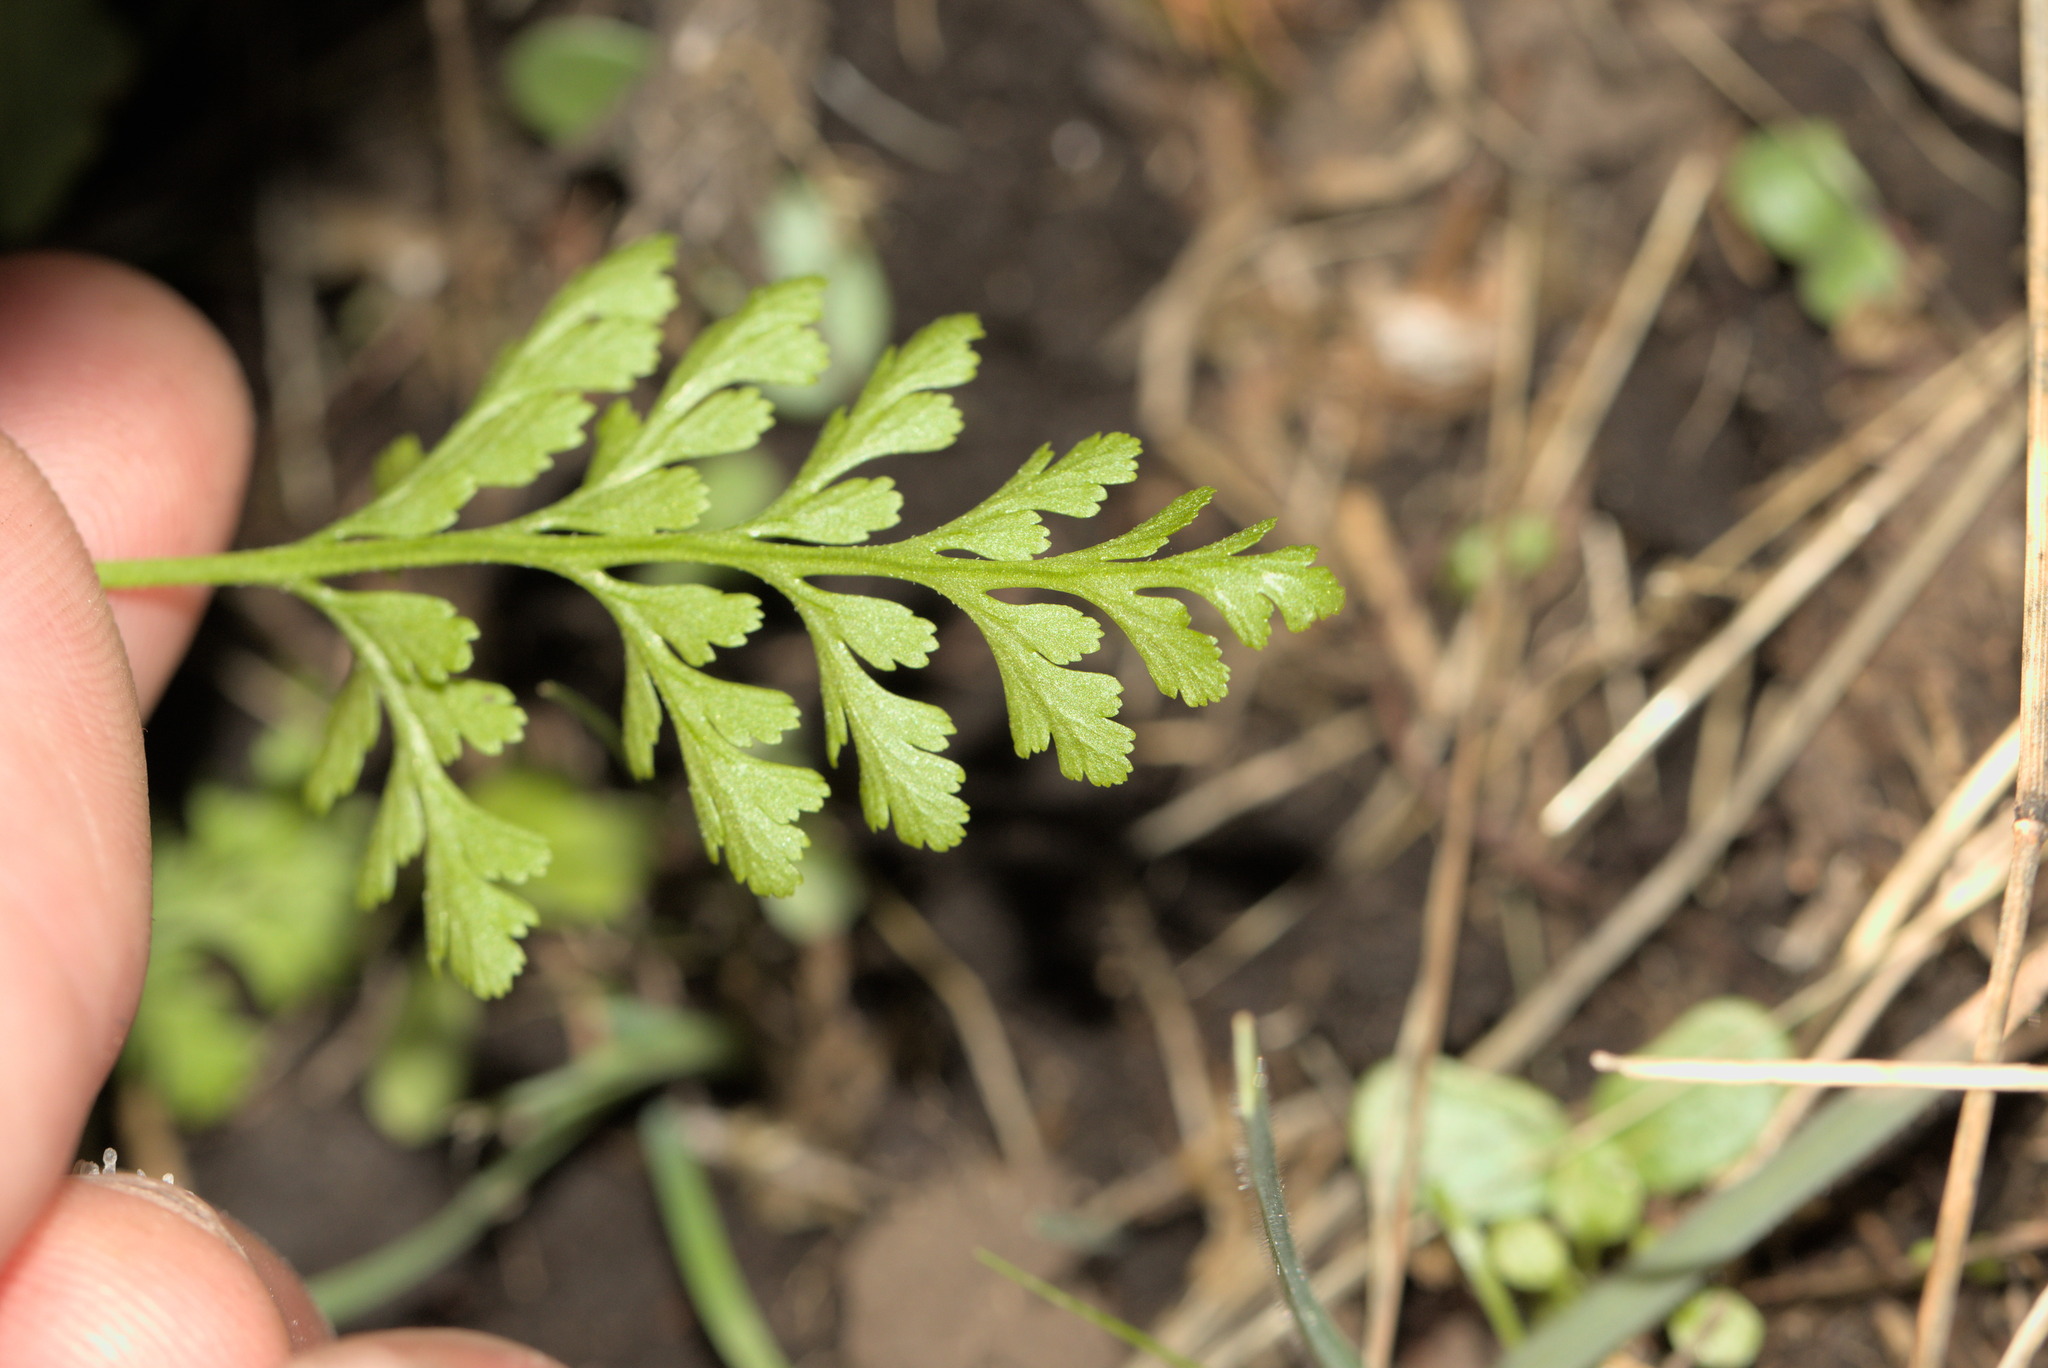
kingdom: Plantae
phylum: Tracheophyta
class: Polypodiopsida
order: Polypodiales
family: Pteridaceae
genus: Cryptogramma
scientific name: Cryptogramma acrostichoides
